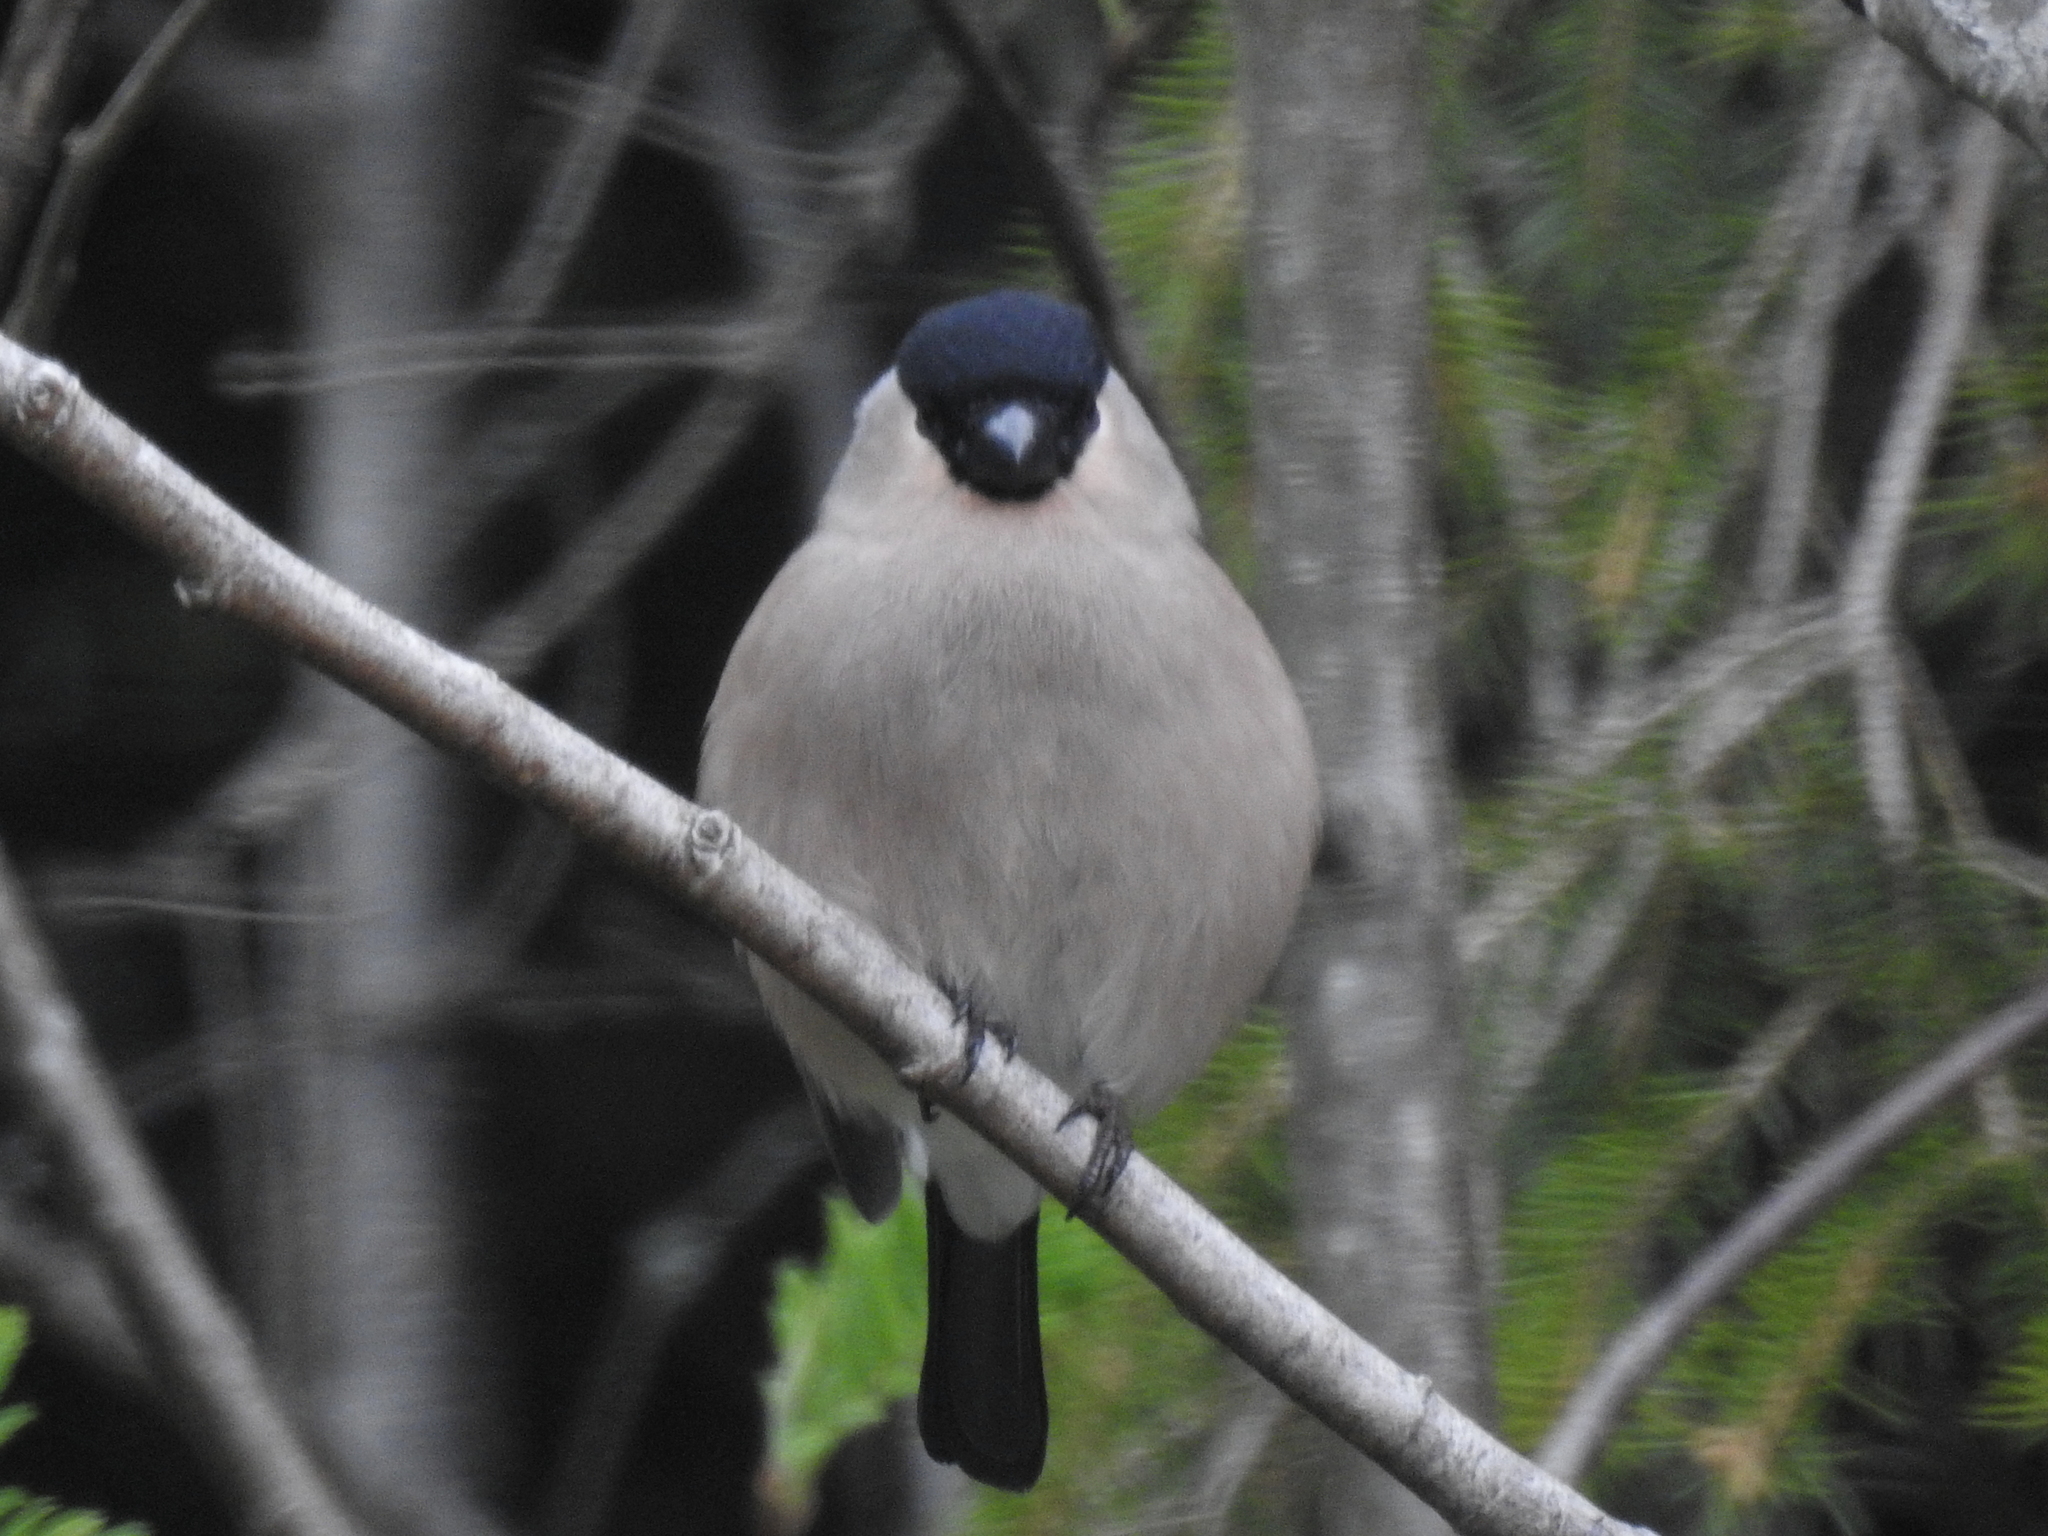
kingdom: Animalia
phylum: Chordata
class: Aves
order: Passeriformes
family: Fringillidae
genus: Pyrrhula
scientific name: Pyrrhula pyrrhula
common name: Eurasian bullfinch
